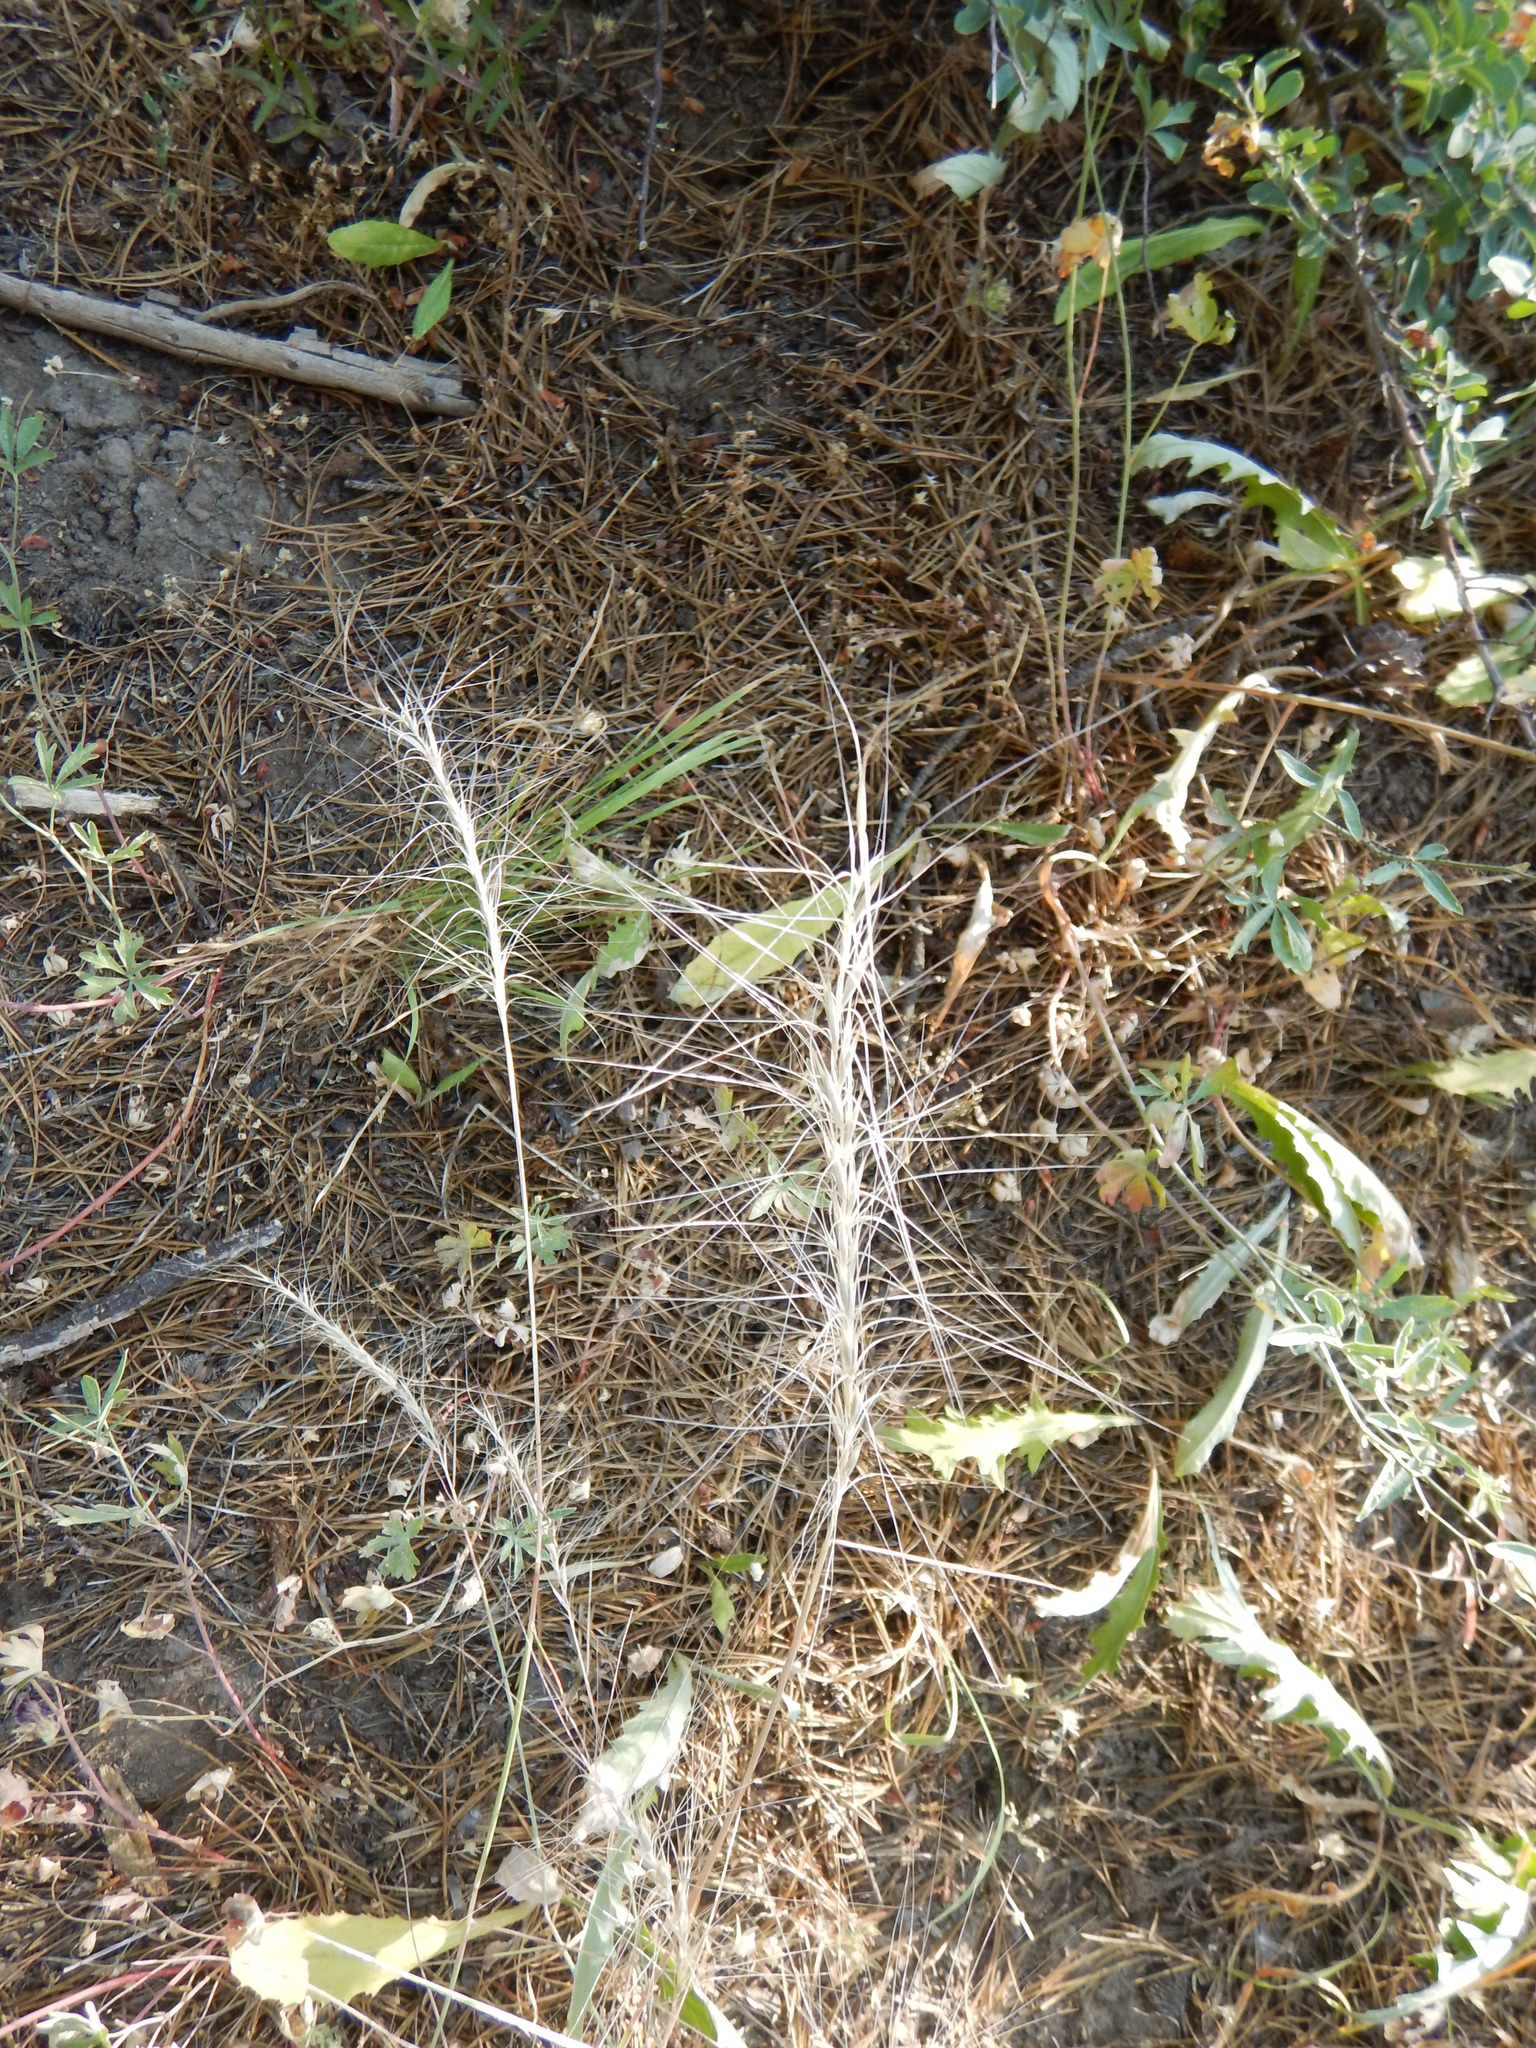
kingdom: Plantae
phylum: Tracheophyta
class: Liliopsida
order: Poales
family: Poaceae
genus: Elymus
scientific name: Elymus elymoides
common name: Bottlebrush squirreltail
